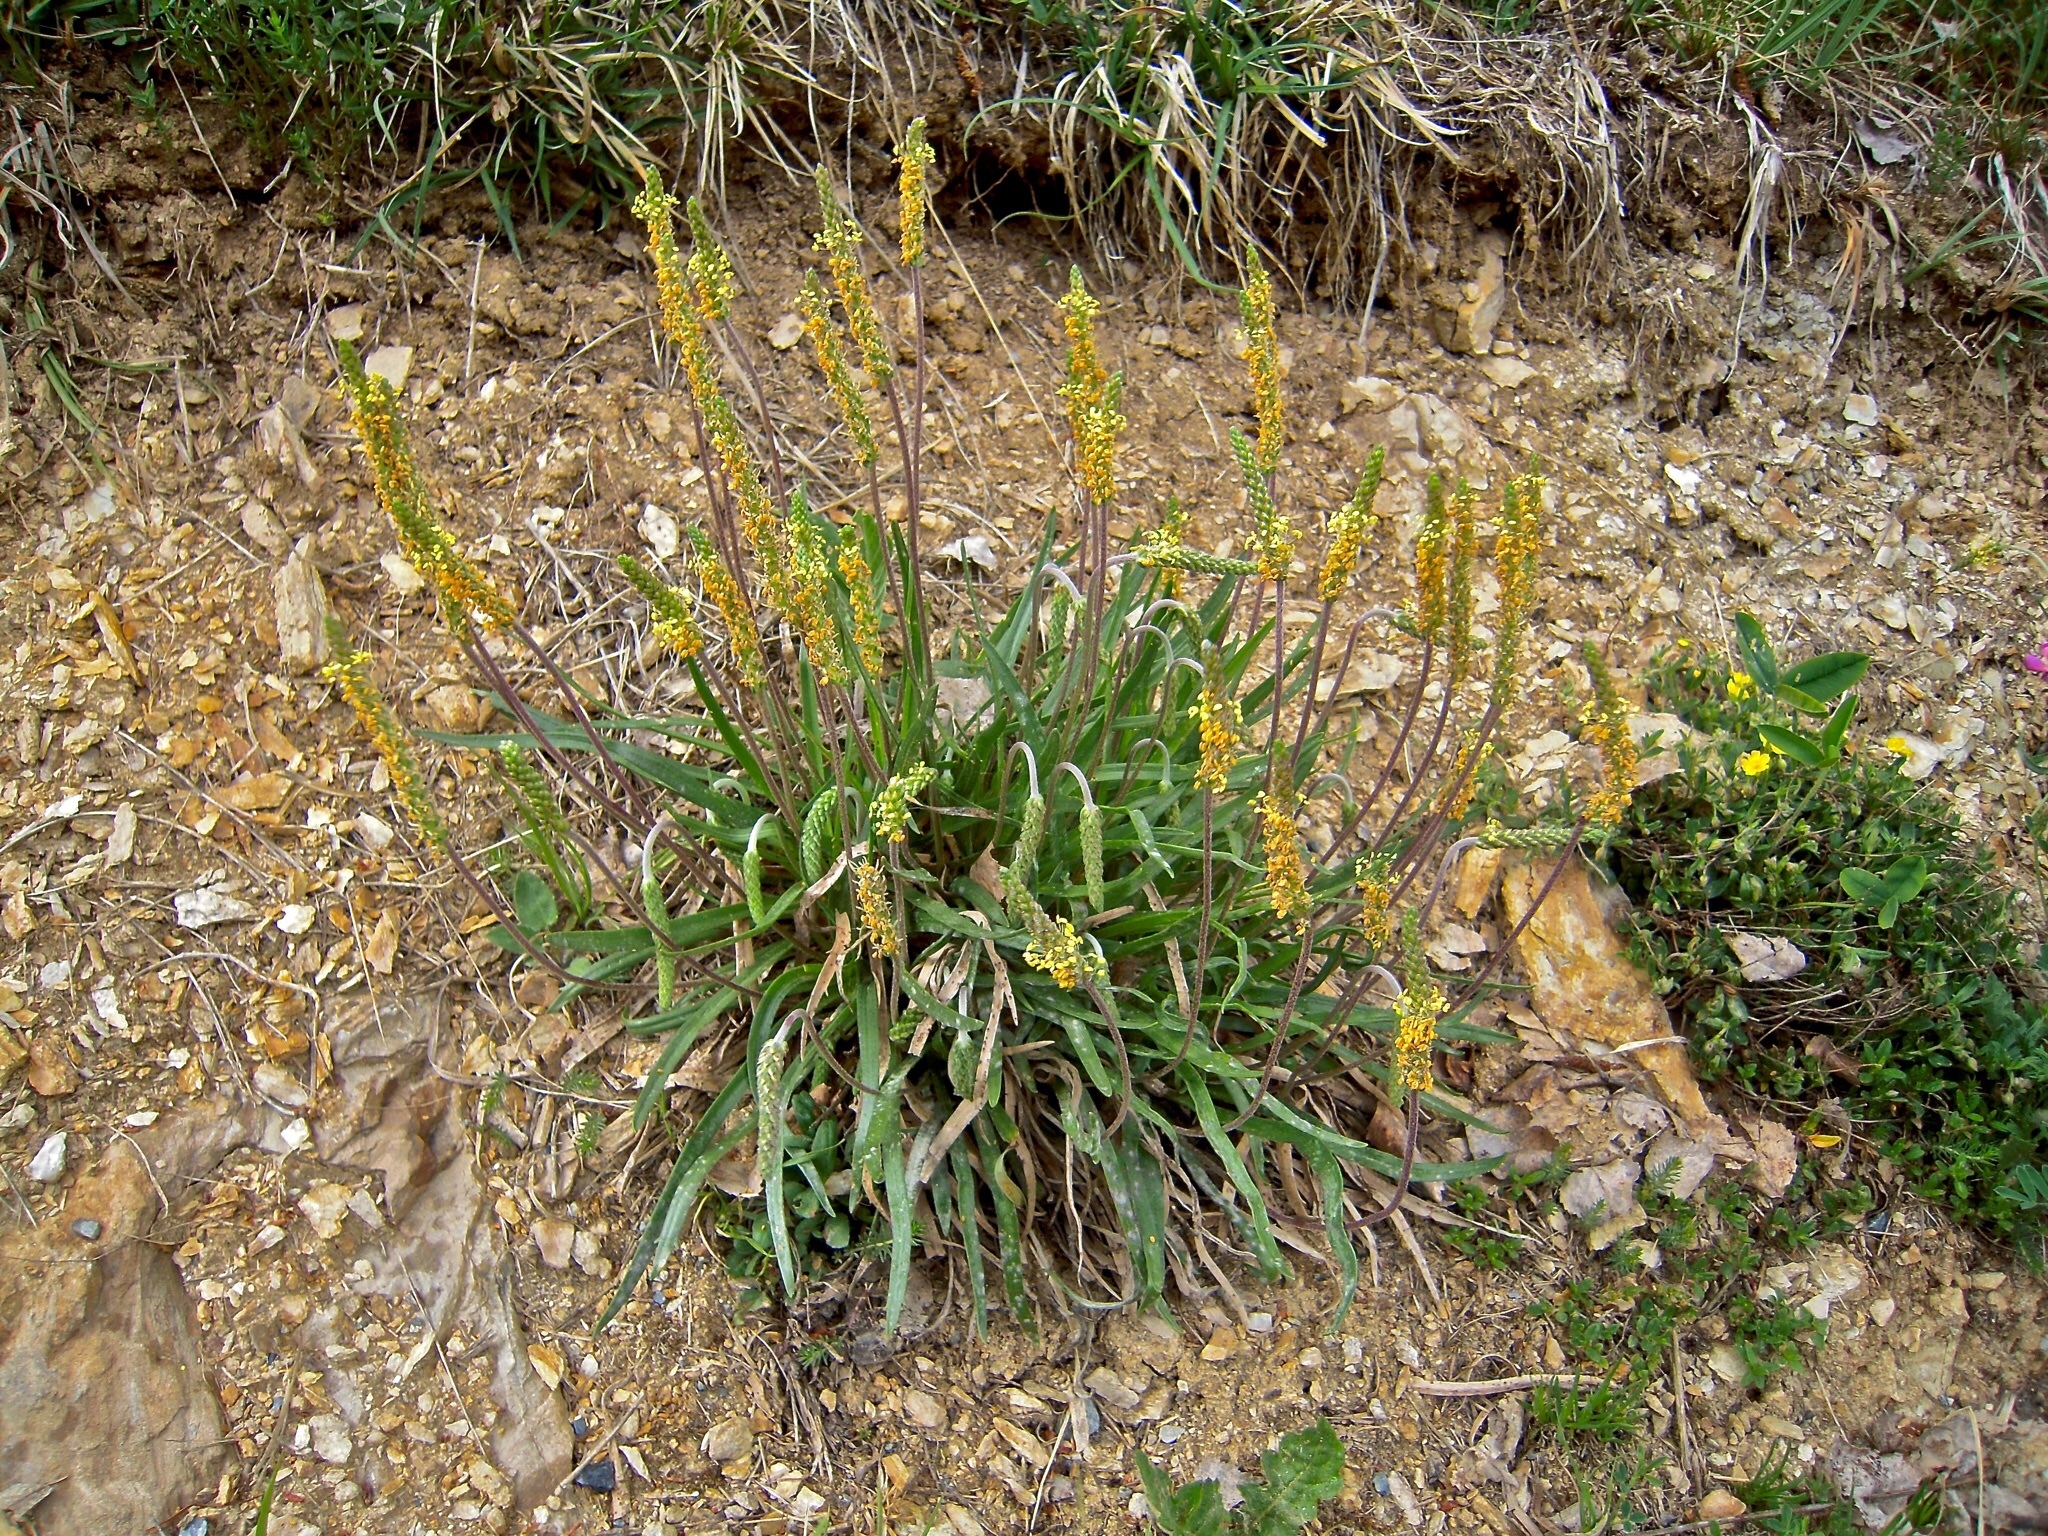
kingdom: Plantae
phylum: Tracheophyta
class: Magnoliopsida
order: Lamiales
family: Plantaginaceae
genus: Plantago
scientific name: Plantago
